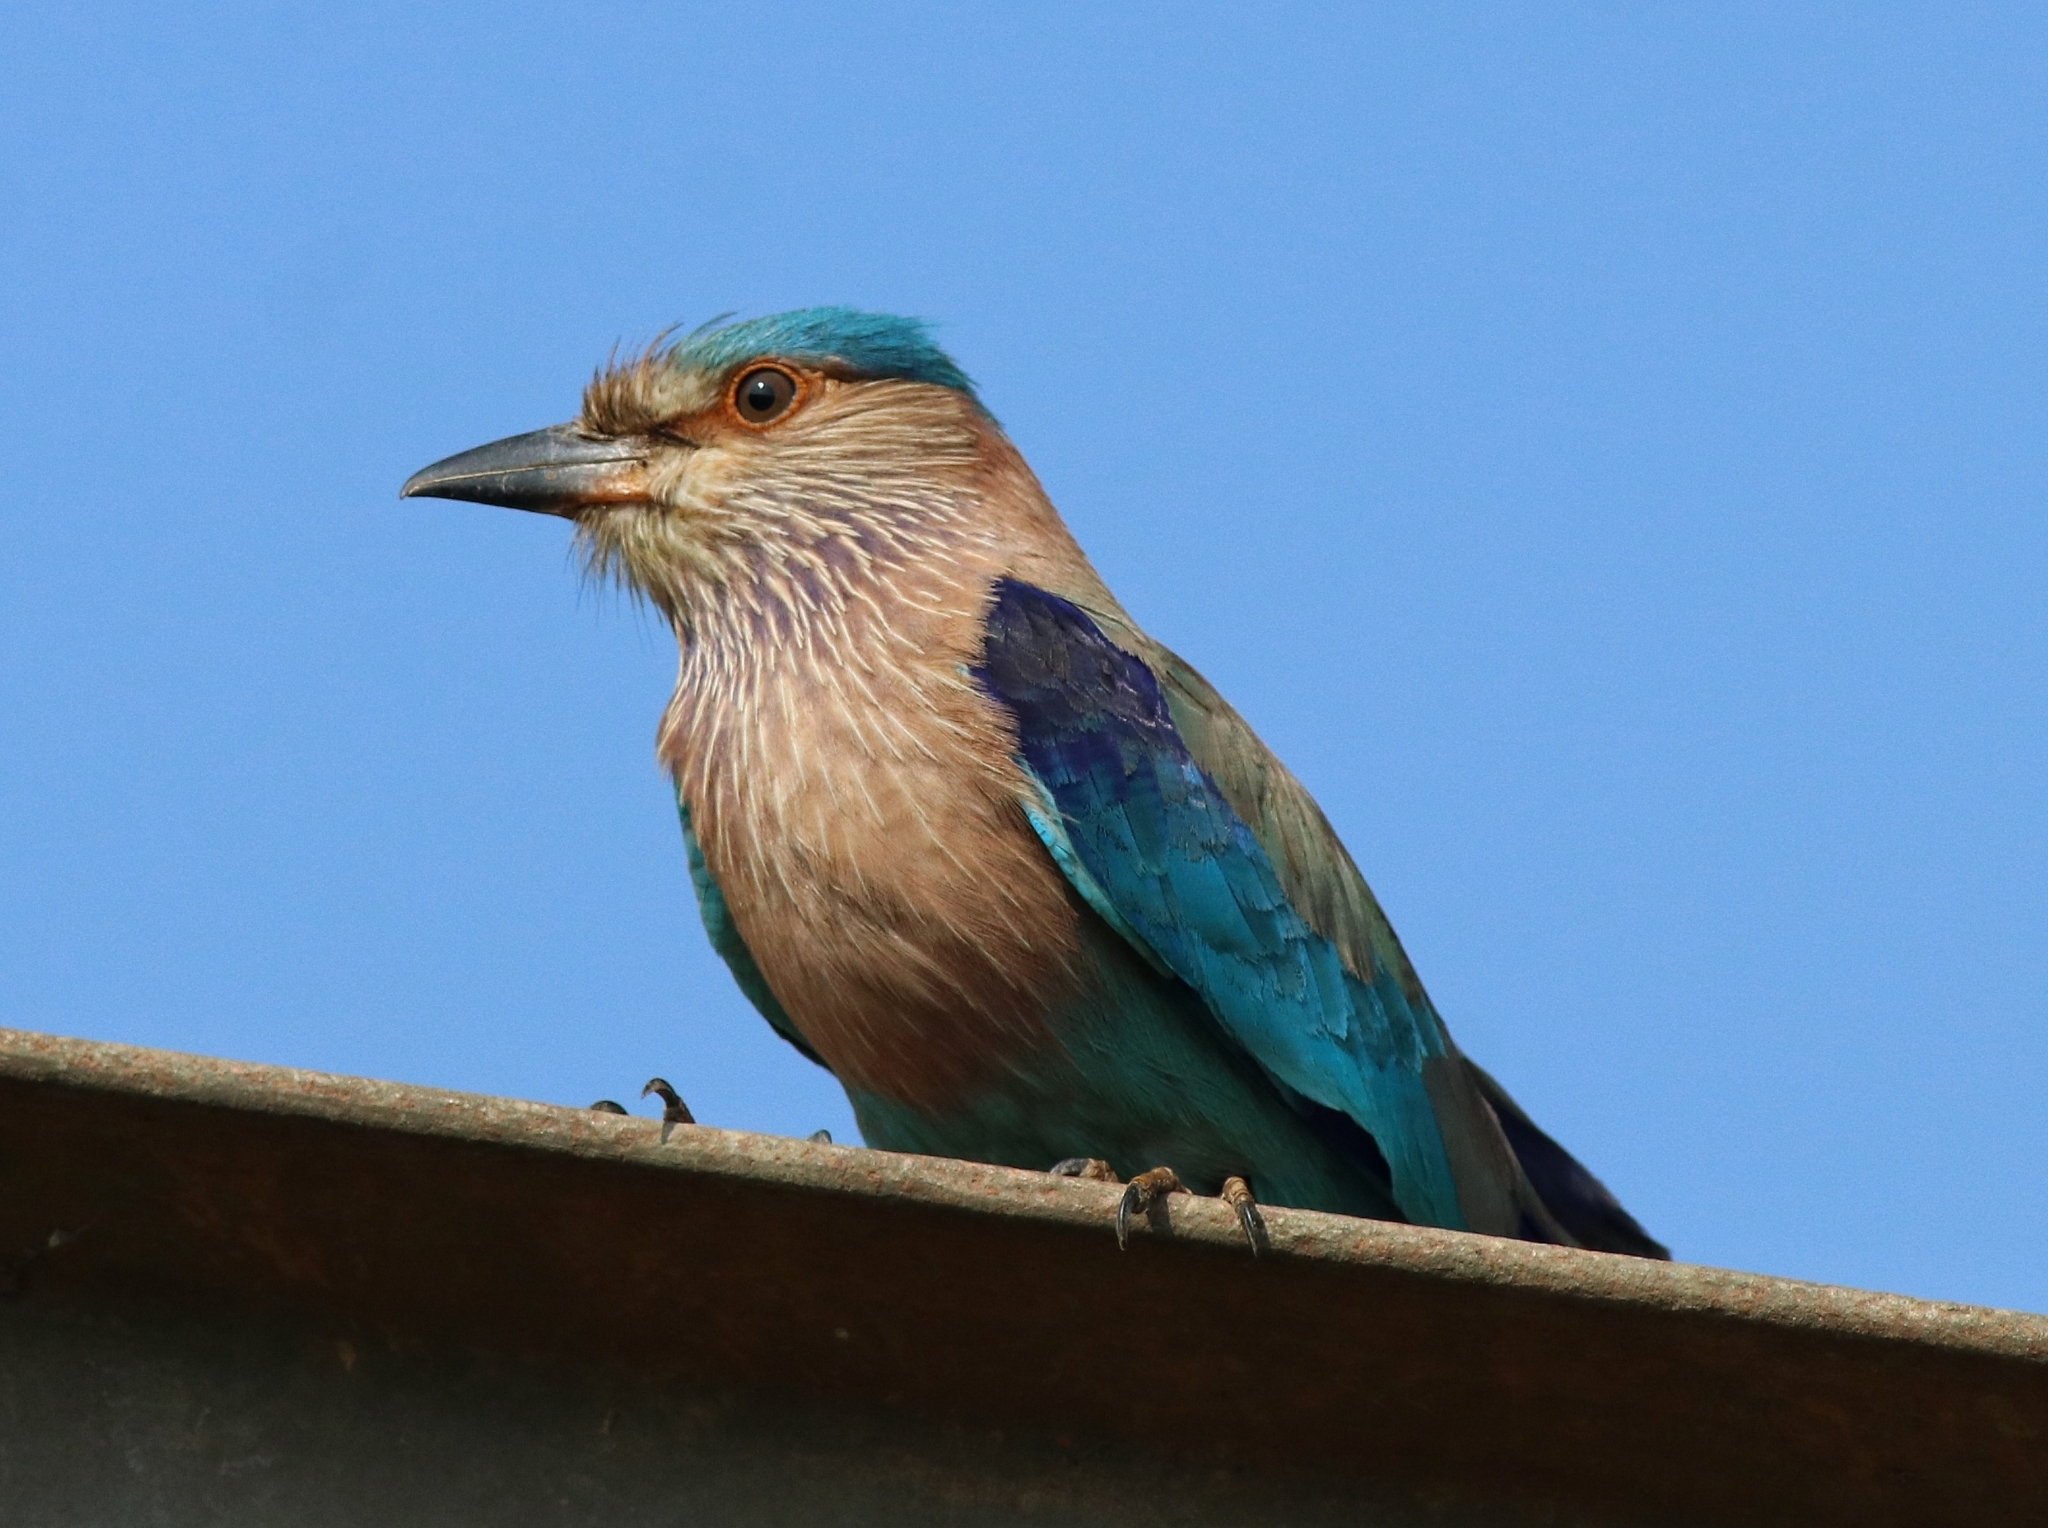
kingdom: Animalia
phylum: Chordata
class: Aves
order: Coraciiformes
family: Coraciidae
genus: Coracias
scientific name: Coracias benghalensis
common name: Indian roller
